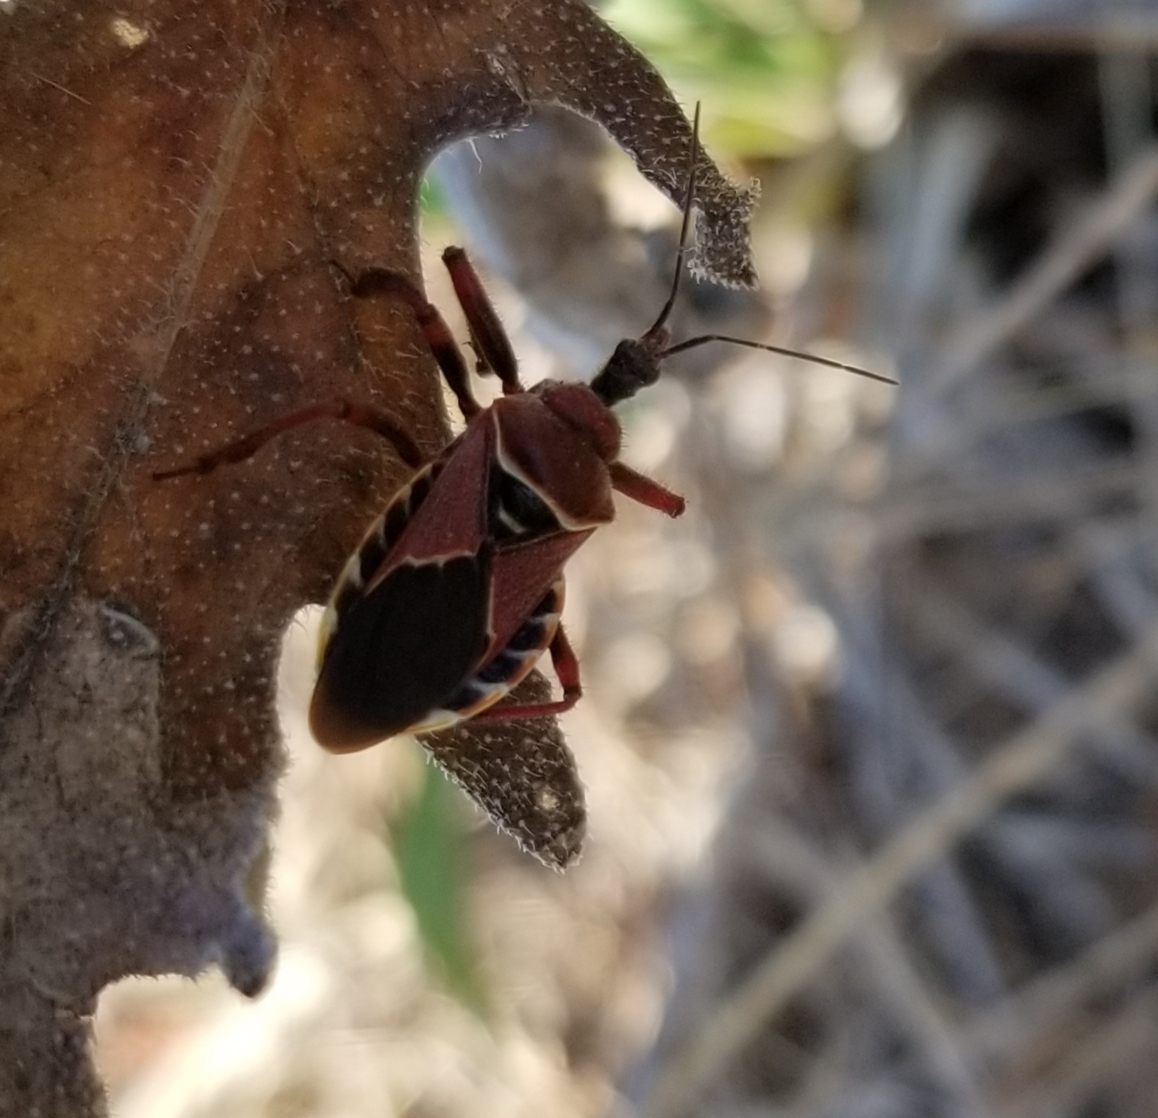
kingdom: Animalia
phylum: Arthropoda
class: Insecta
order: Hemiptera
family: Reduviidae
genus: Apiomerus
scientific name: Apiomerus spissipes
